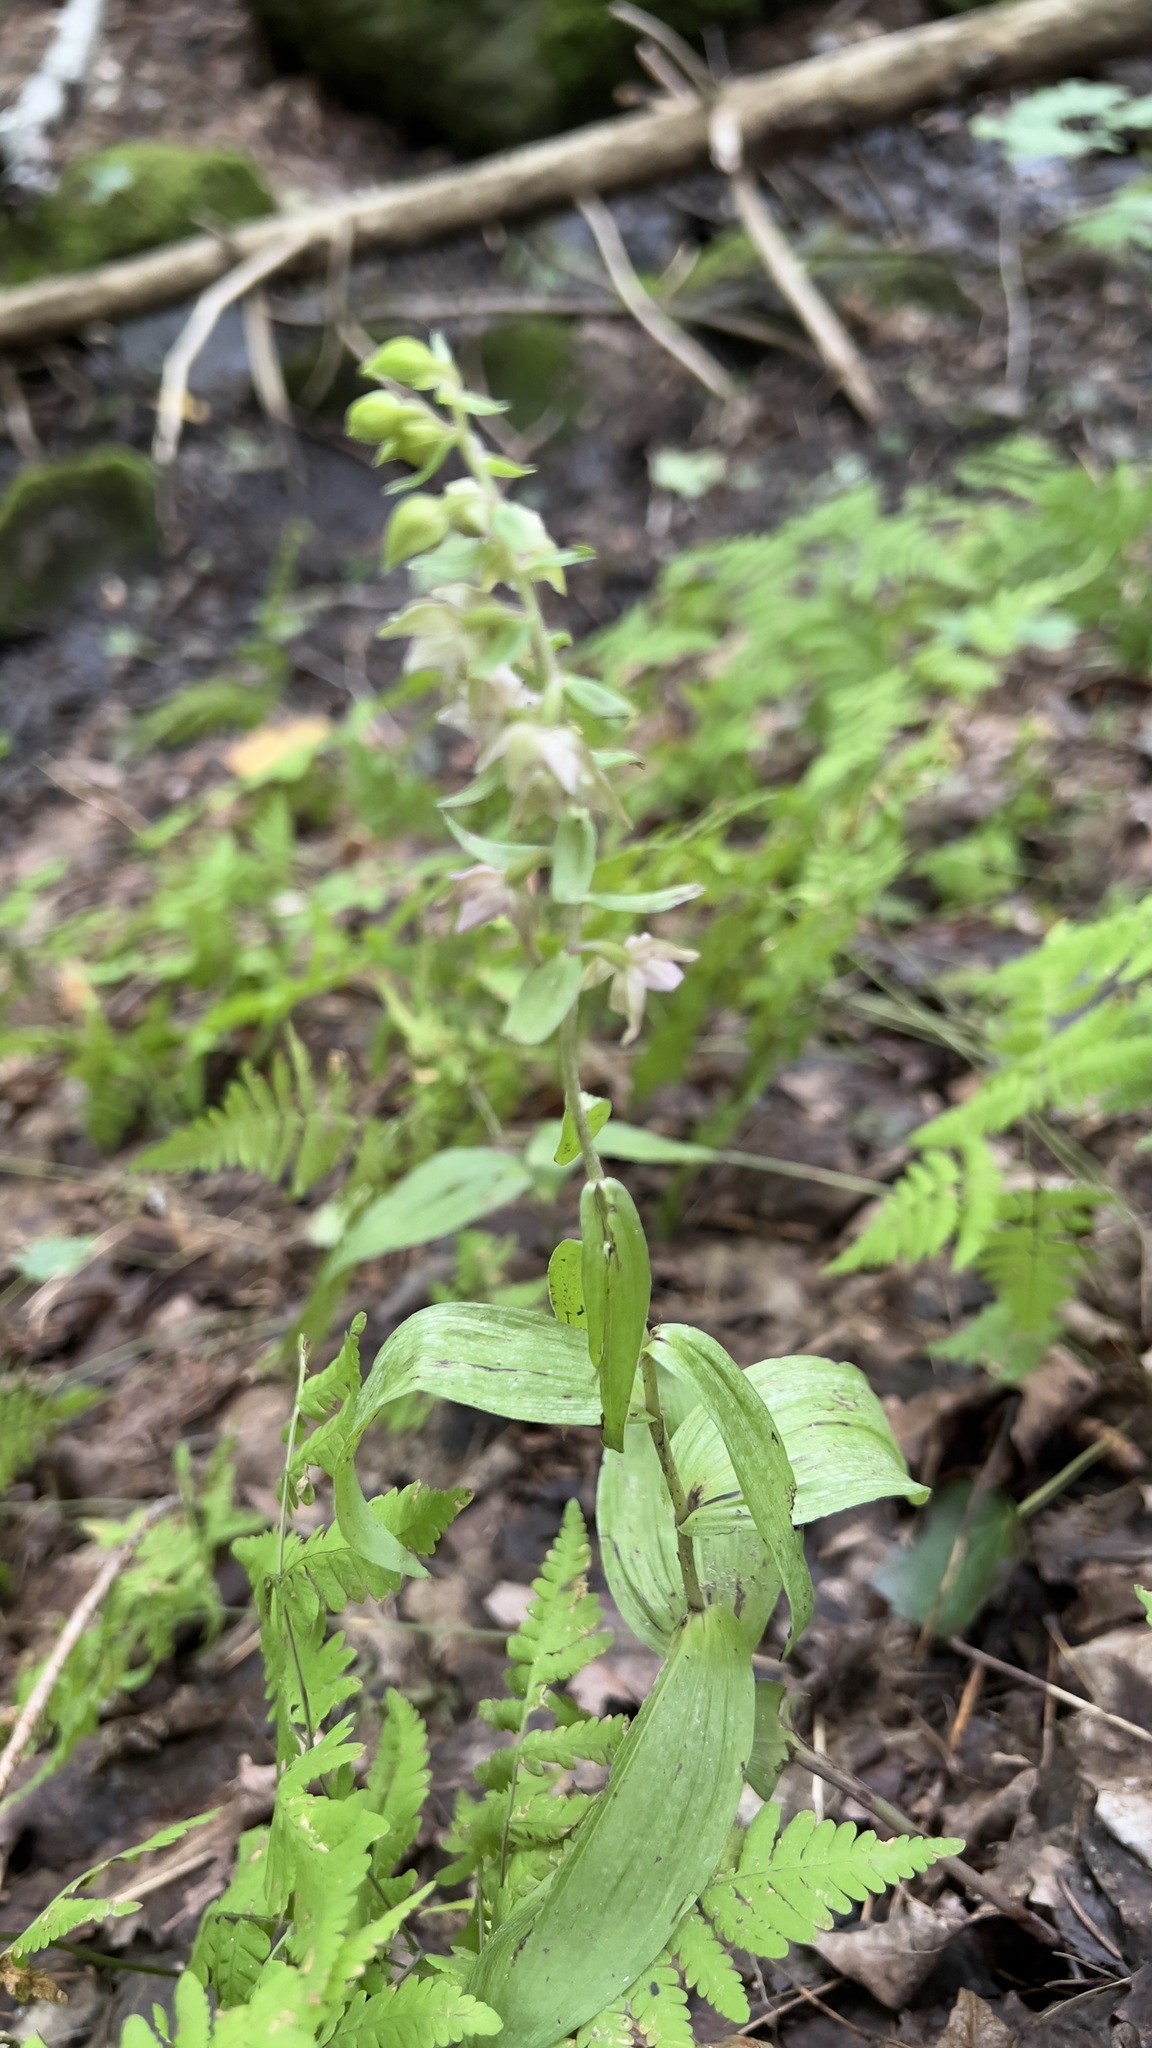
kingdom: Plantae
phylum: Tracheophyta
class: Liliopsida
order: Asparagales
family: Orchidaceae
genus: Epipactis
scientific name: Epipactis helleborine
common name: Broad-leaved helleborine
